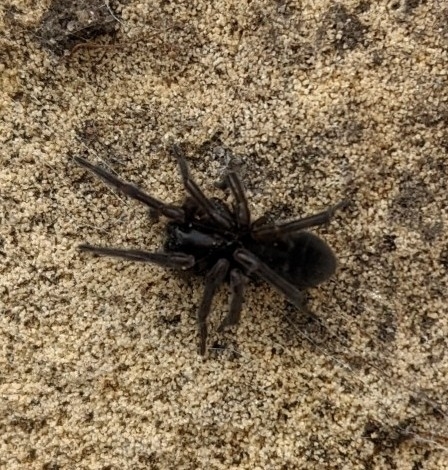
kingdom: Animalia
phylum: Arthropoda
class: Arachnida
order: Araneae
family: Amaurobiidae
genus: Amaurobius
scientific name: Amaurobius ferox
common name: Black laceweaver
